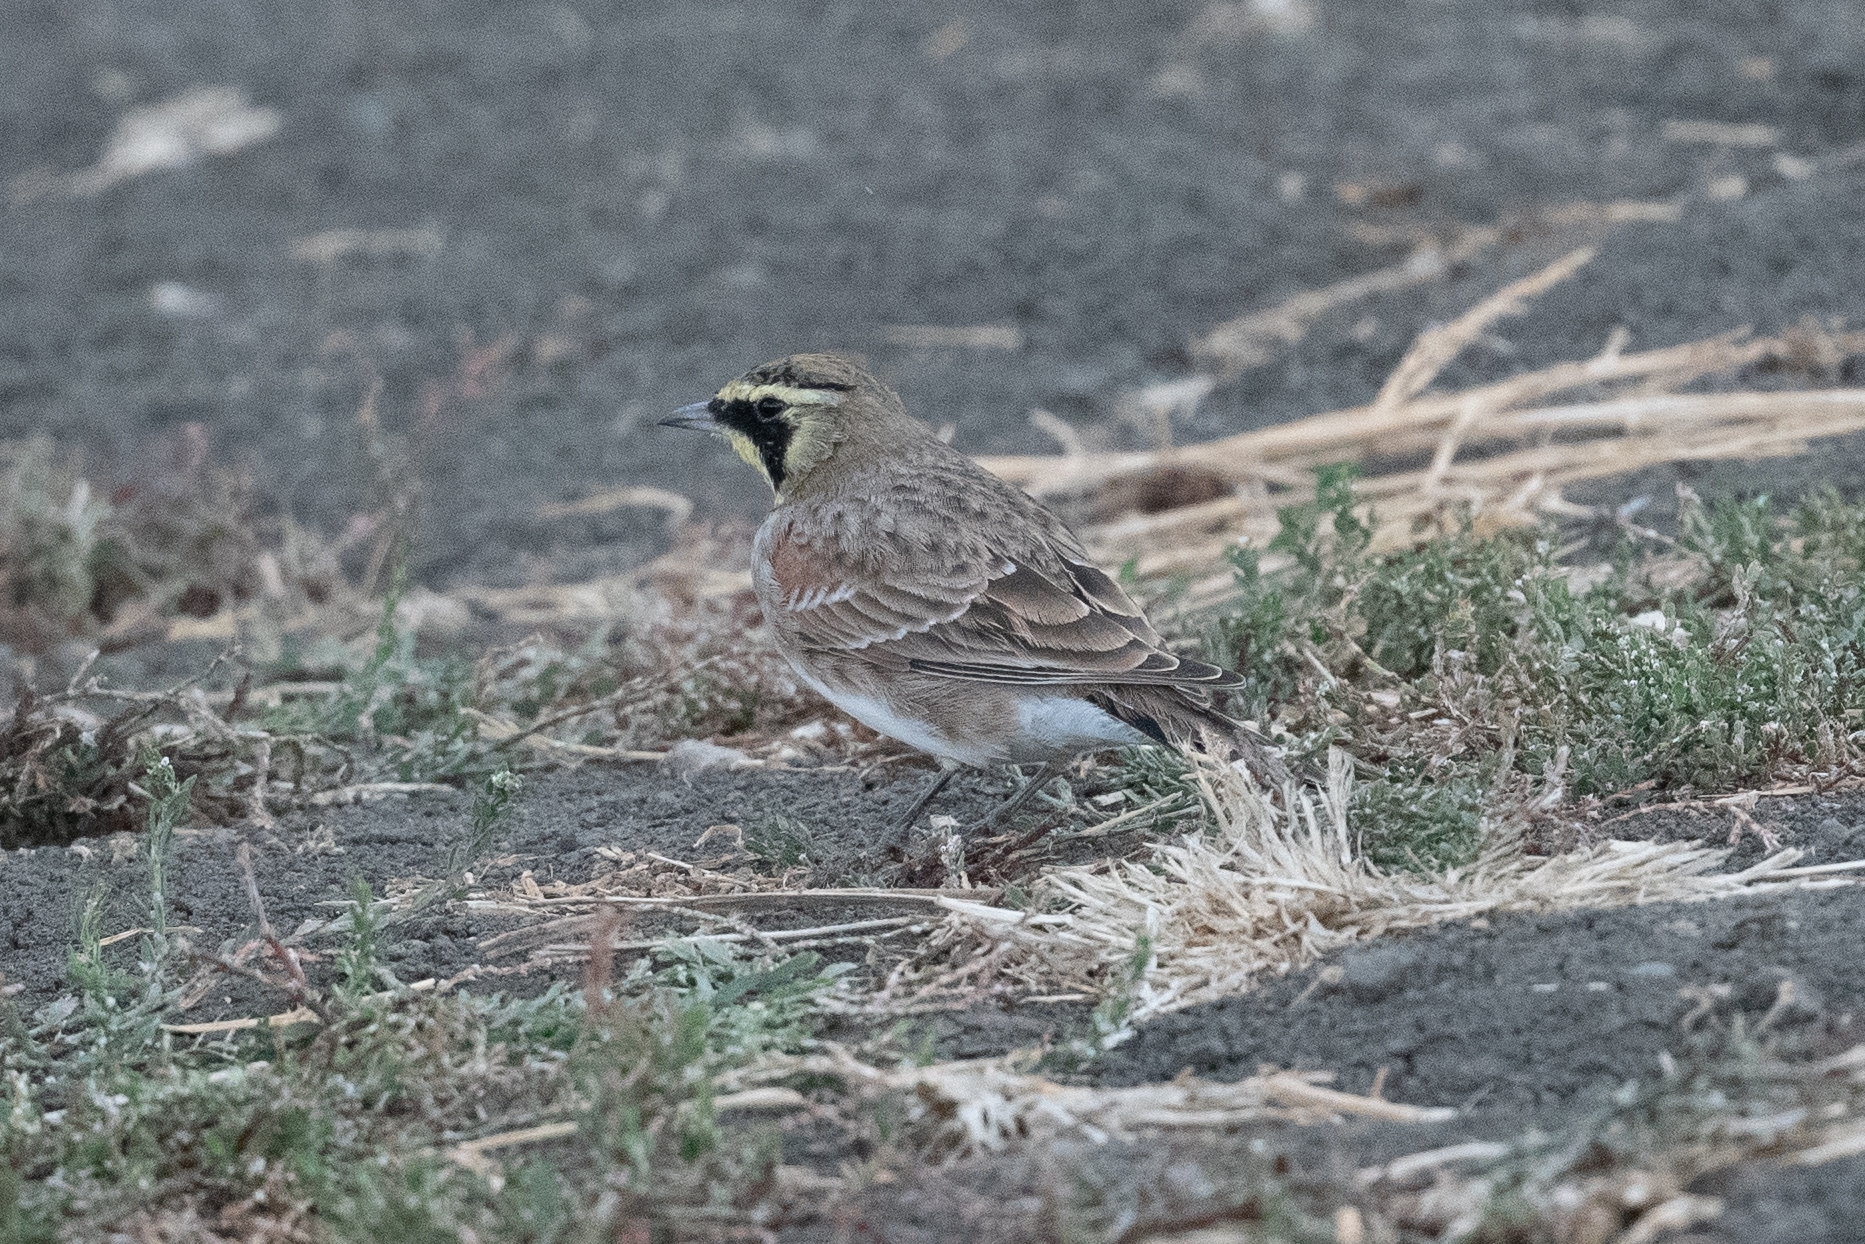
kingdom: Animalia
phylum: Chordata
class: Aves
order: Passeriformes
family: Alaudidae
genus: Eremophila
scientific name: Eremophila alpestris
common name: Horned lark
